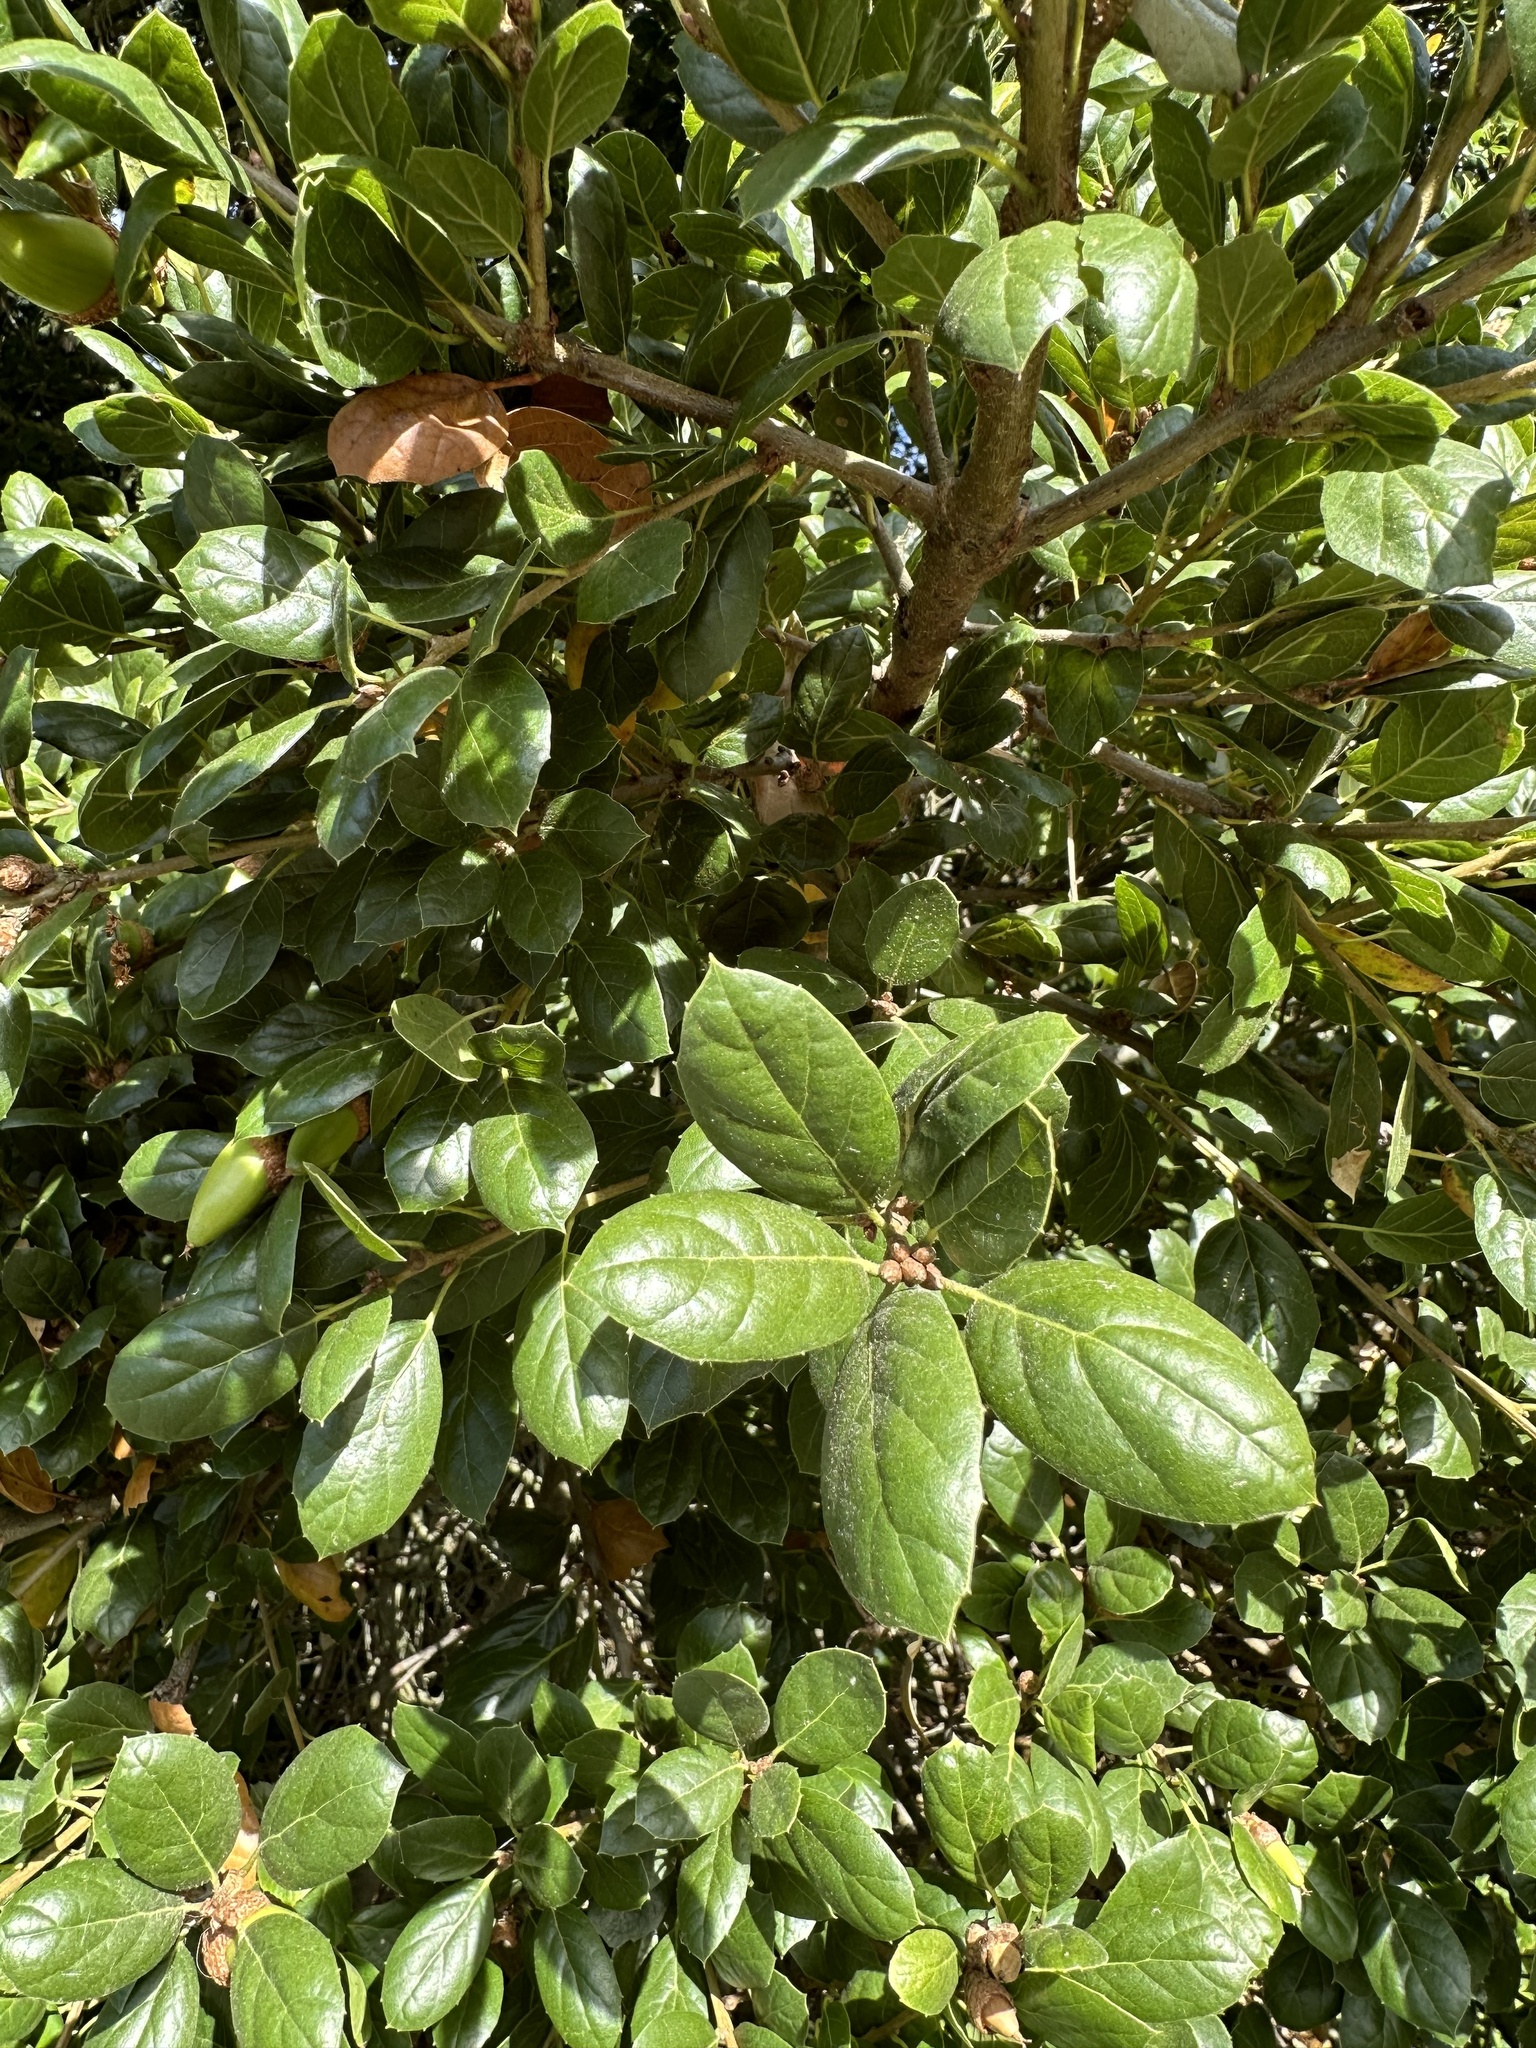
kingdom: Plantae
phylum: Tracheophyta
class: Magnoliopsida
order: Fagales
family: Fagaceae
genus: Quercus
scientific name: Quercus agrifolia
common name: California live oak
